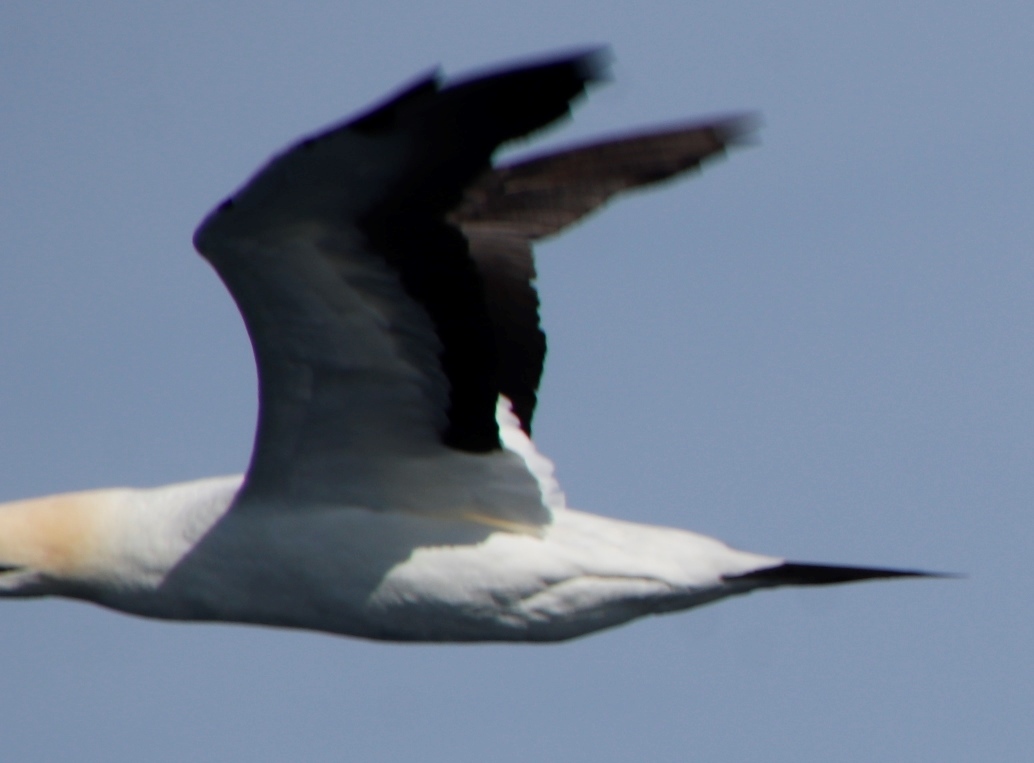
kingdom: Animalia
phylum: Chordata
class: Aves
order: Suliformes
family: Sulidae
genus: Morus
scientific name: Morus capensis
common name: Cape gannet
